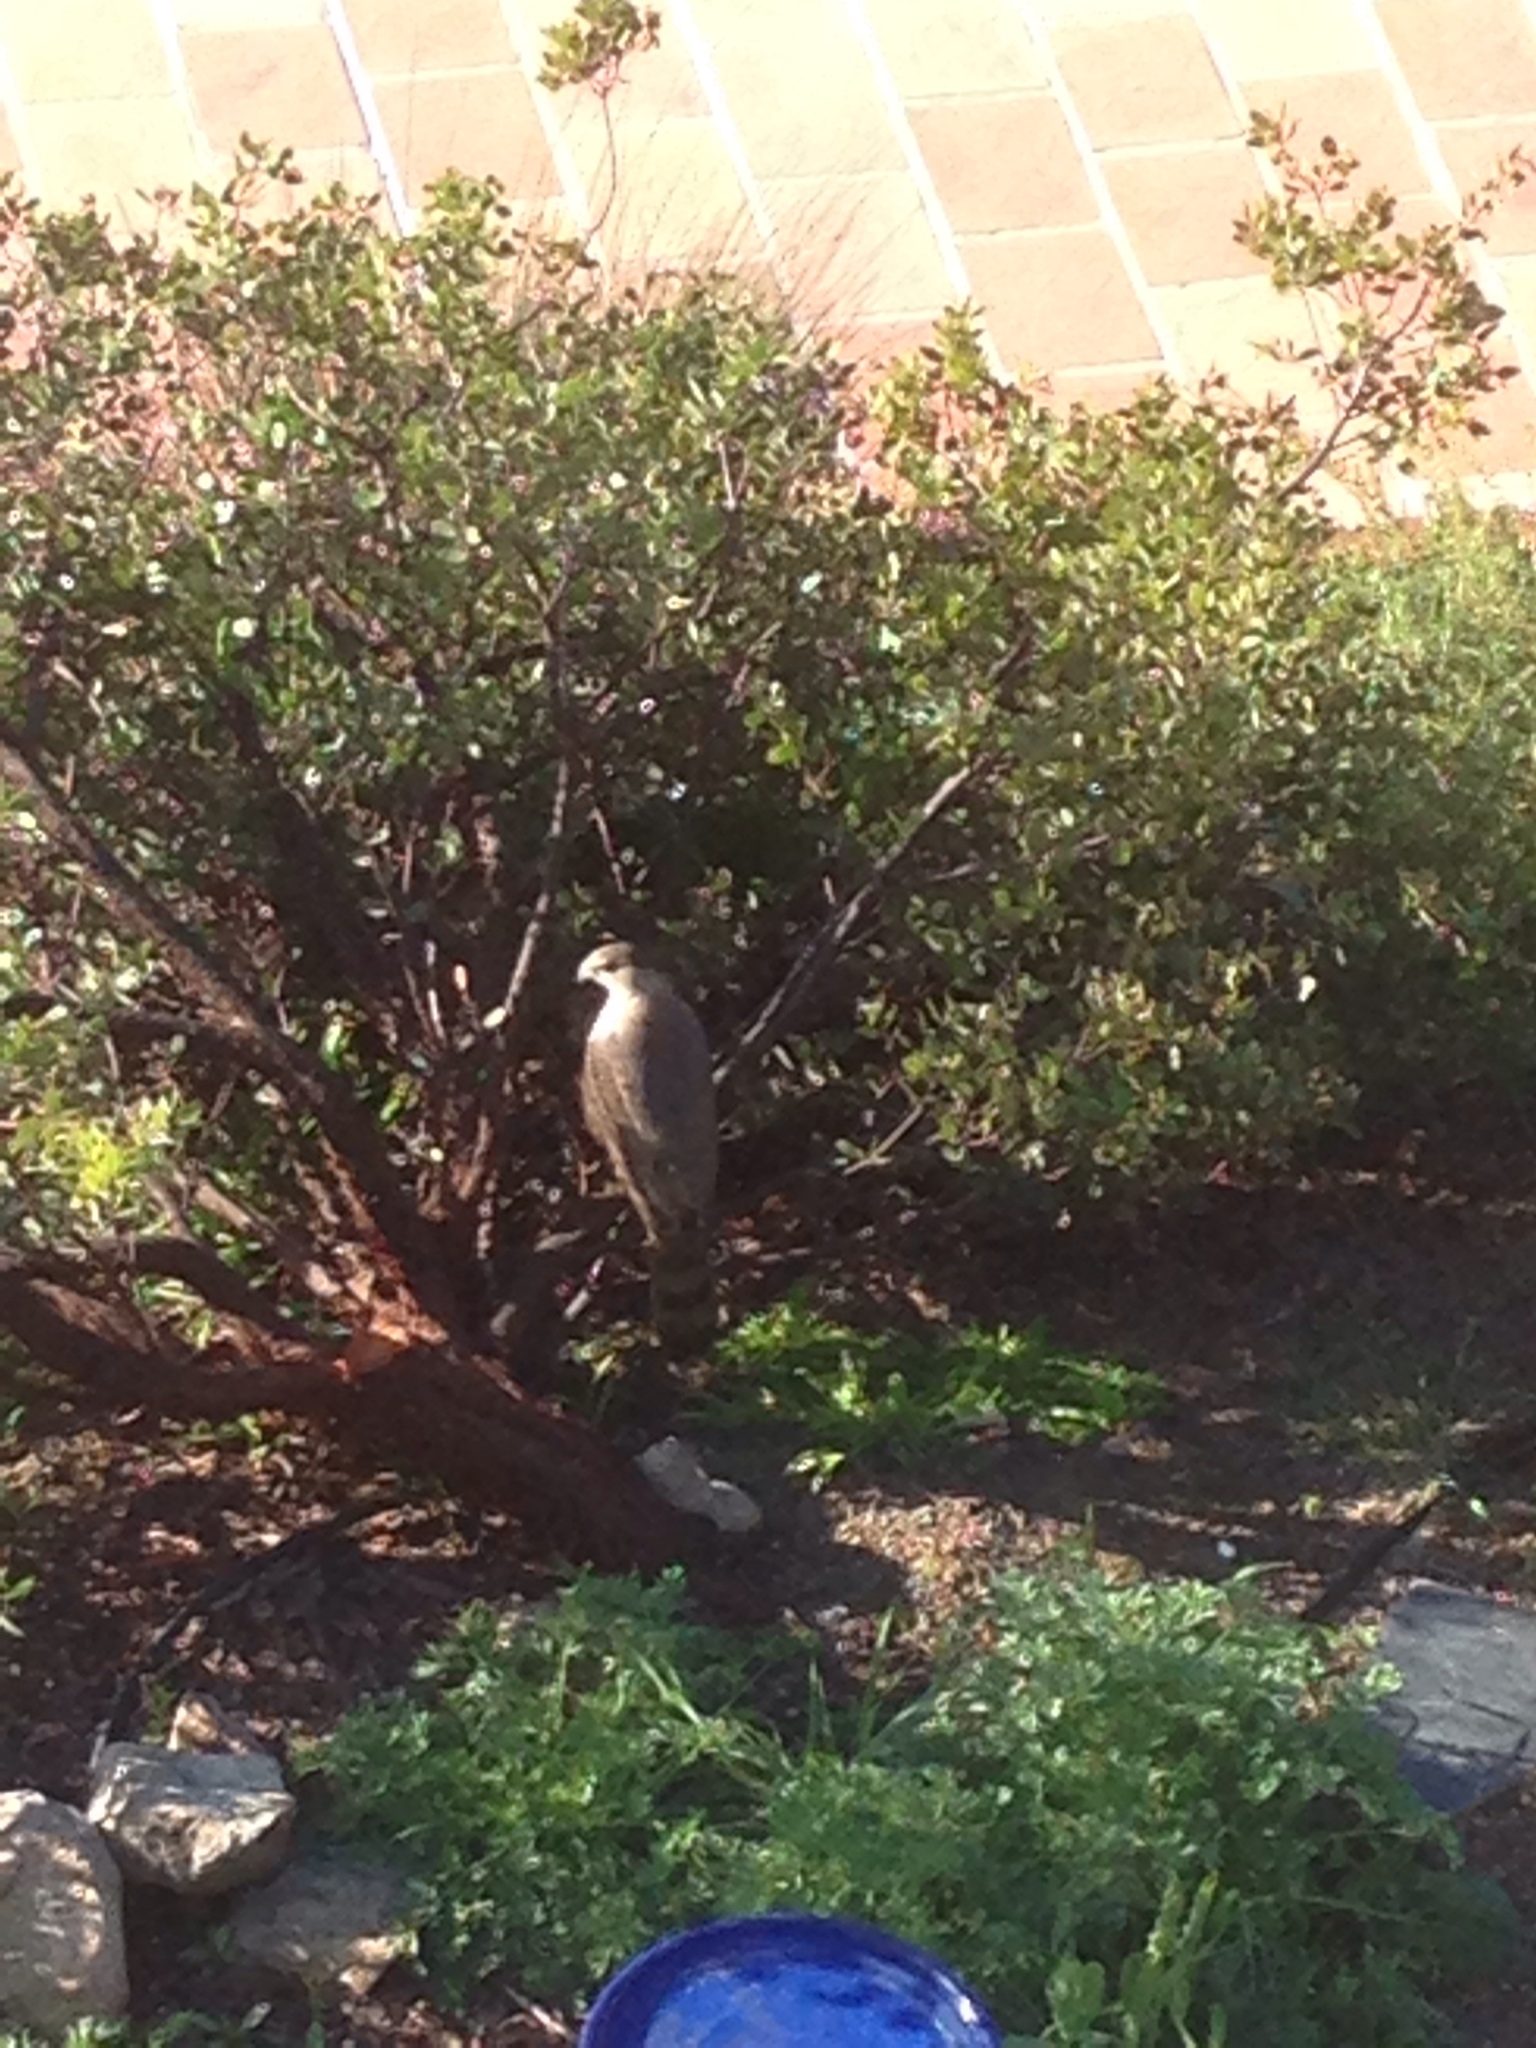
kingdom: Animalia
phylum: Chordata
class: Aves
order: Accipitriformes
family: Accipitridae
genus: Accipiter
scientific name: Accipiter cooperii
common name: Cooper's hawk
